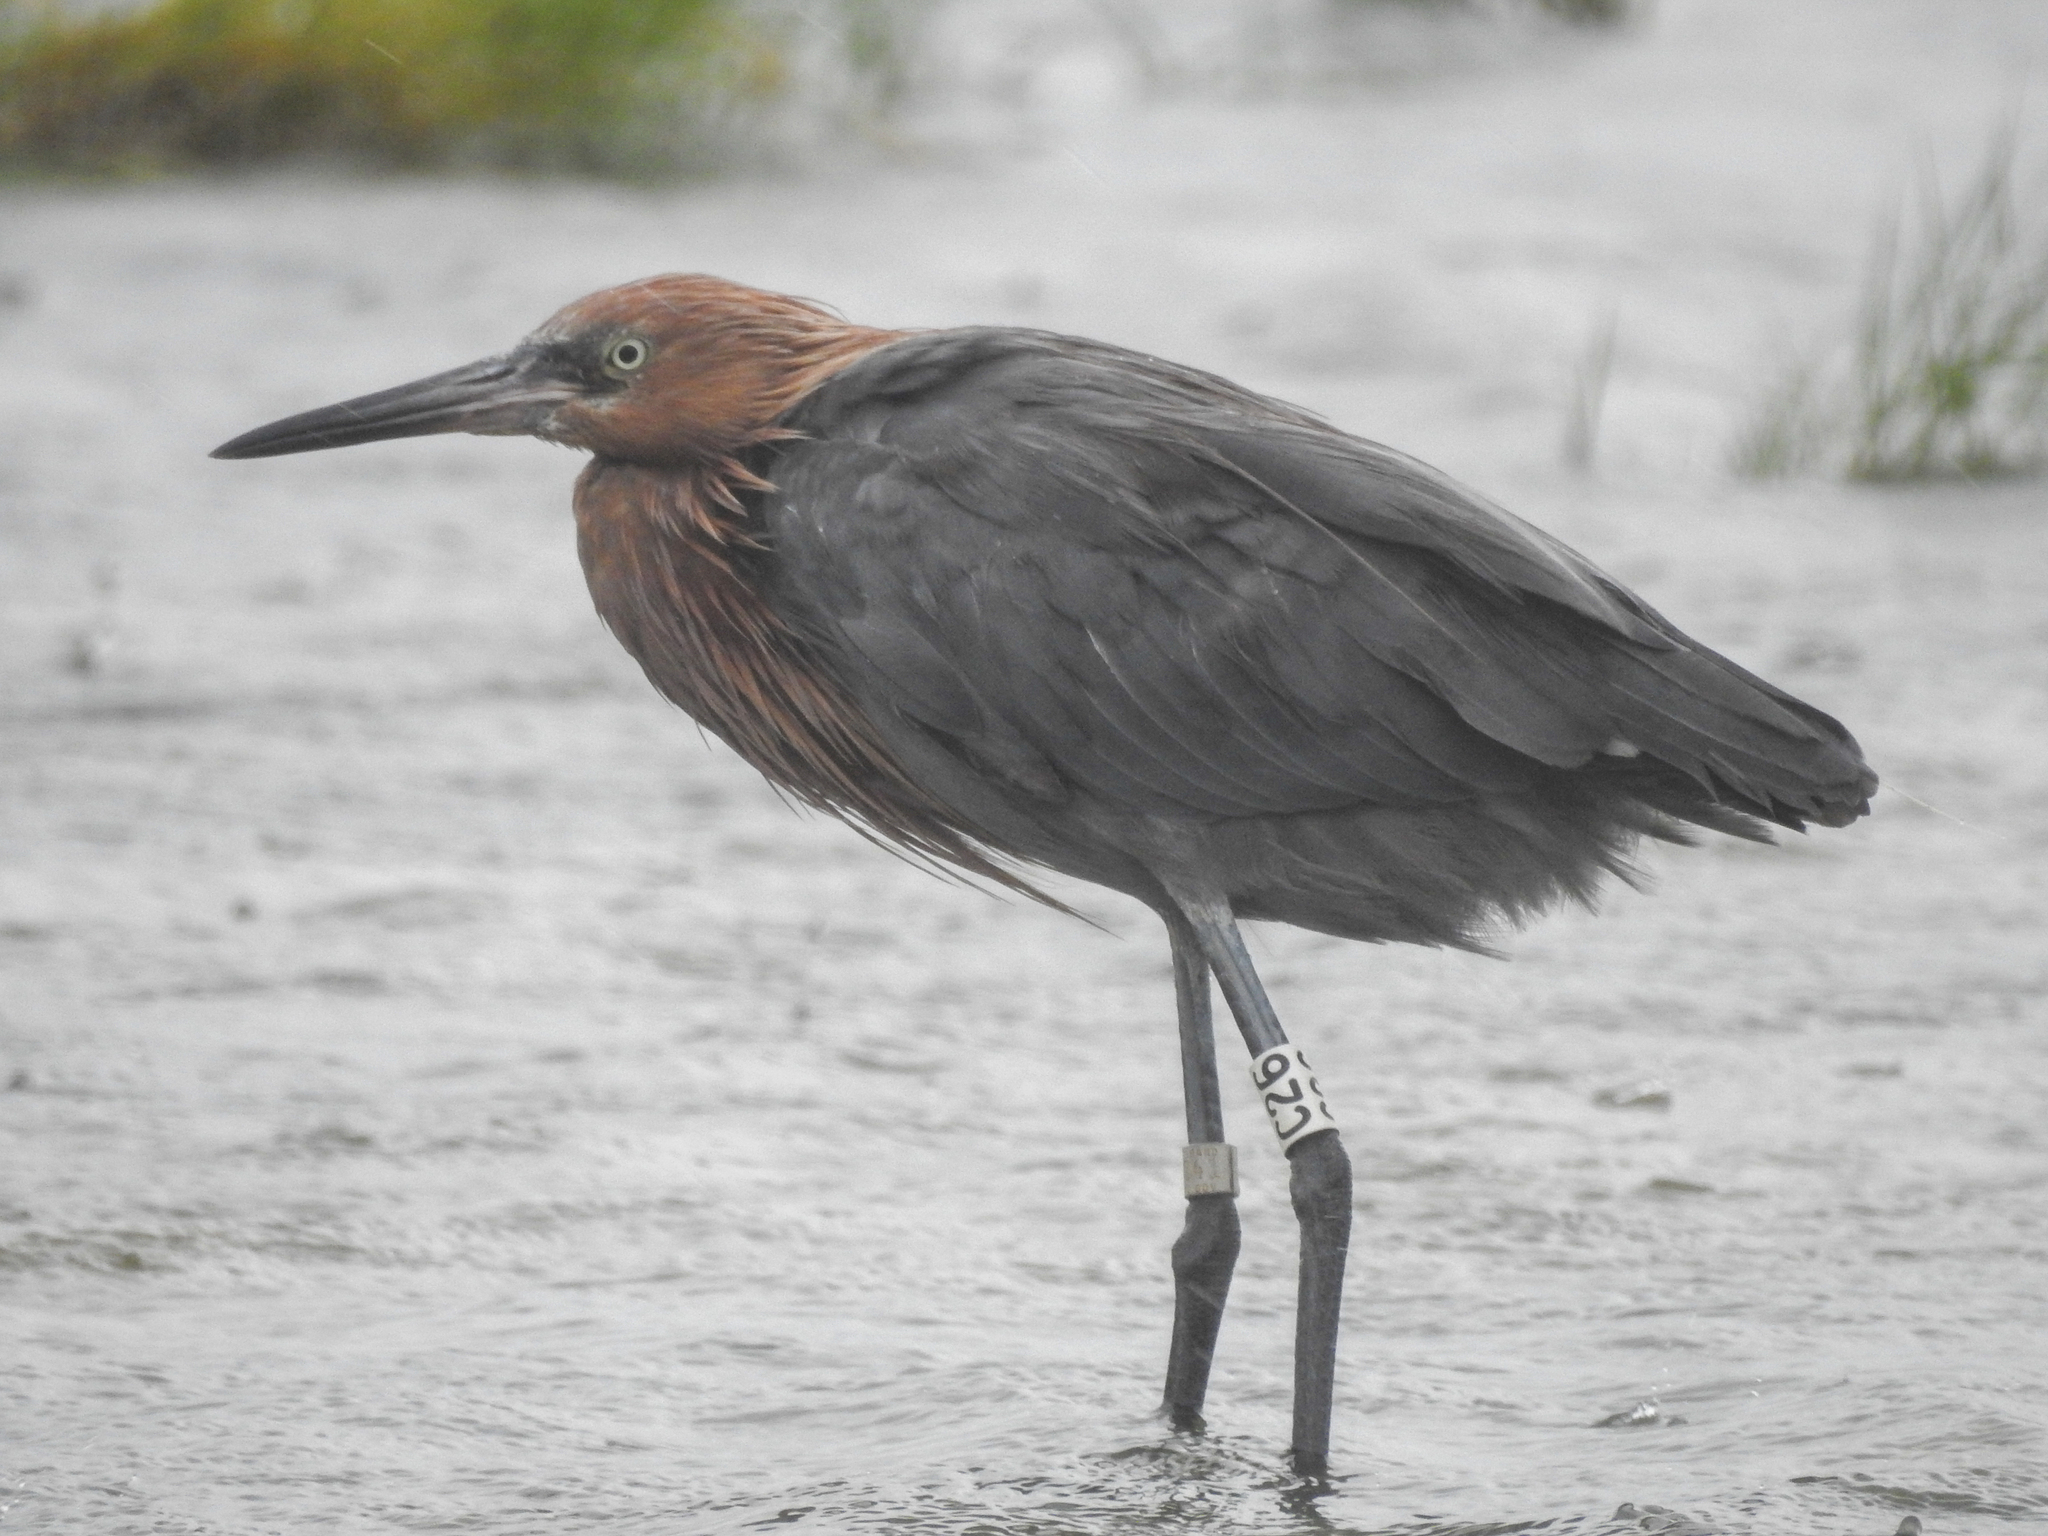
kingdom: Animalia
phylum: Chordata
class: Aves
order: Pelecaniformes
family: Ardeidae
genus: Egretta
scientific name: Egretta rufescens
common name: Reddish egret
